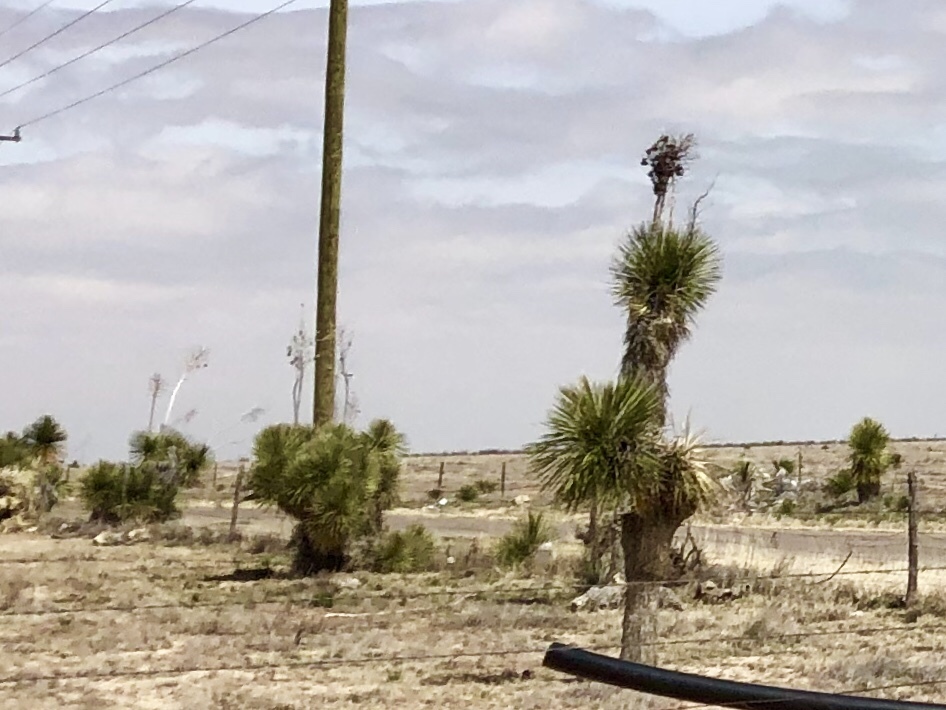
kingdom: Plantae
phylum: Tracheophyta
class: Liliopsida
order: Asparagales
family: Asparagaceae
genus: Yucca
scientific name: Yucca elata
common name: Palmella
